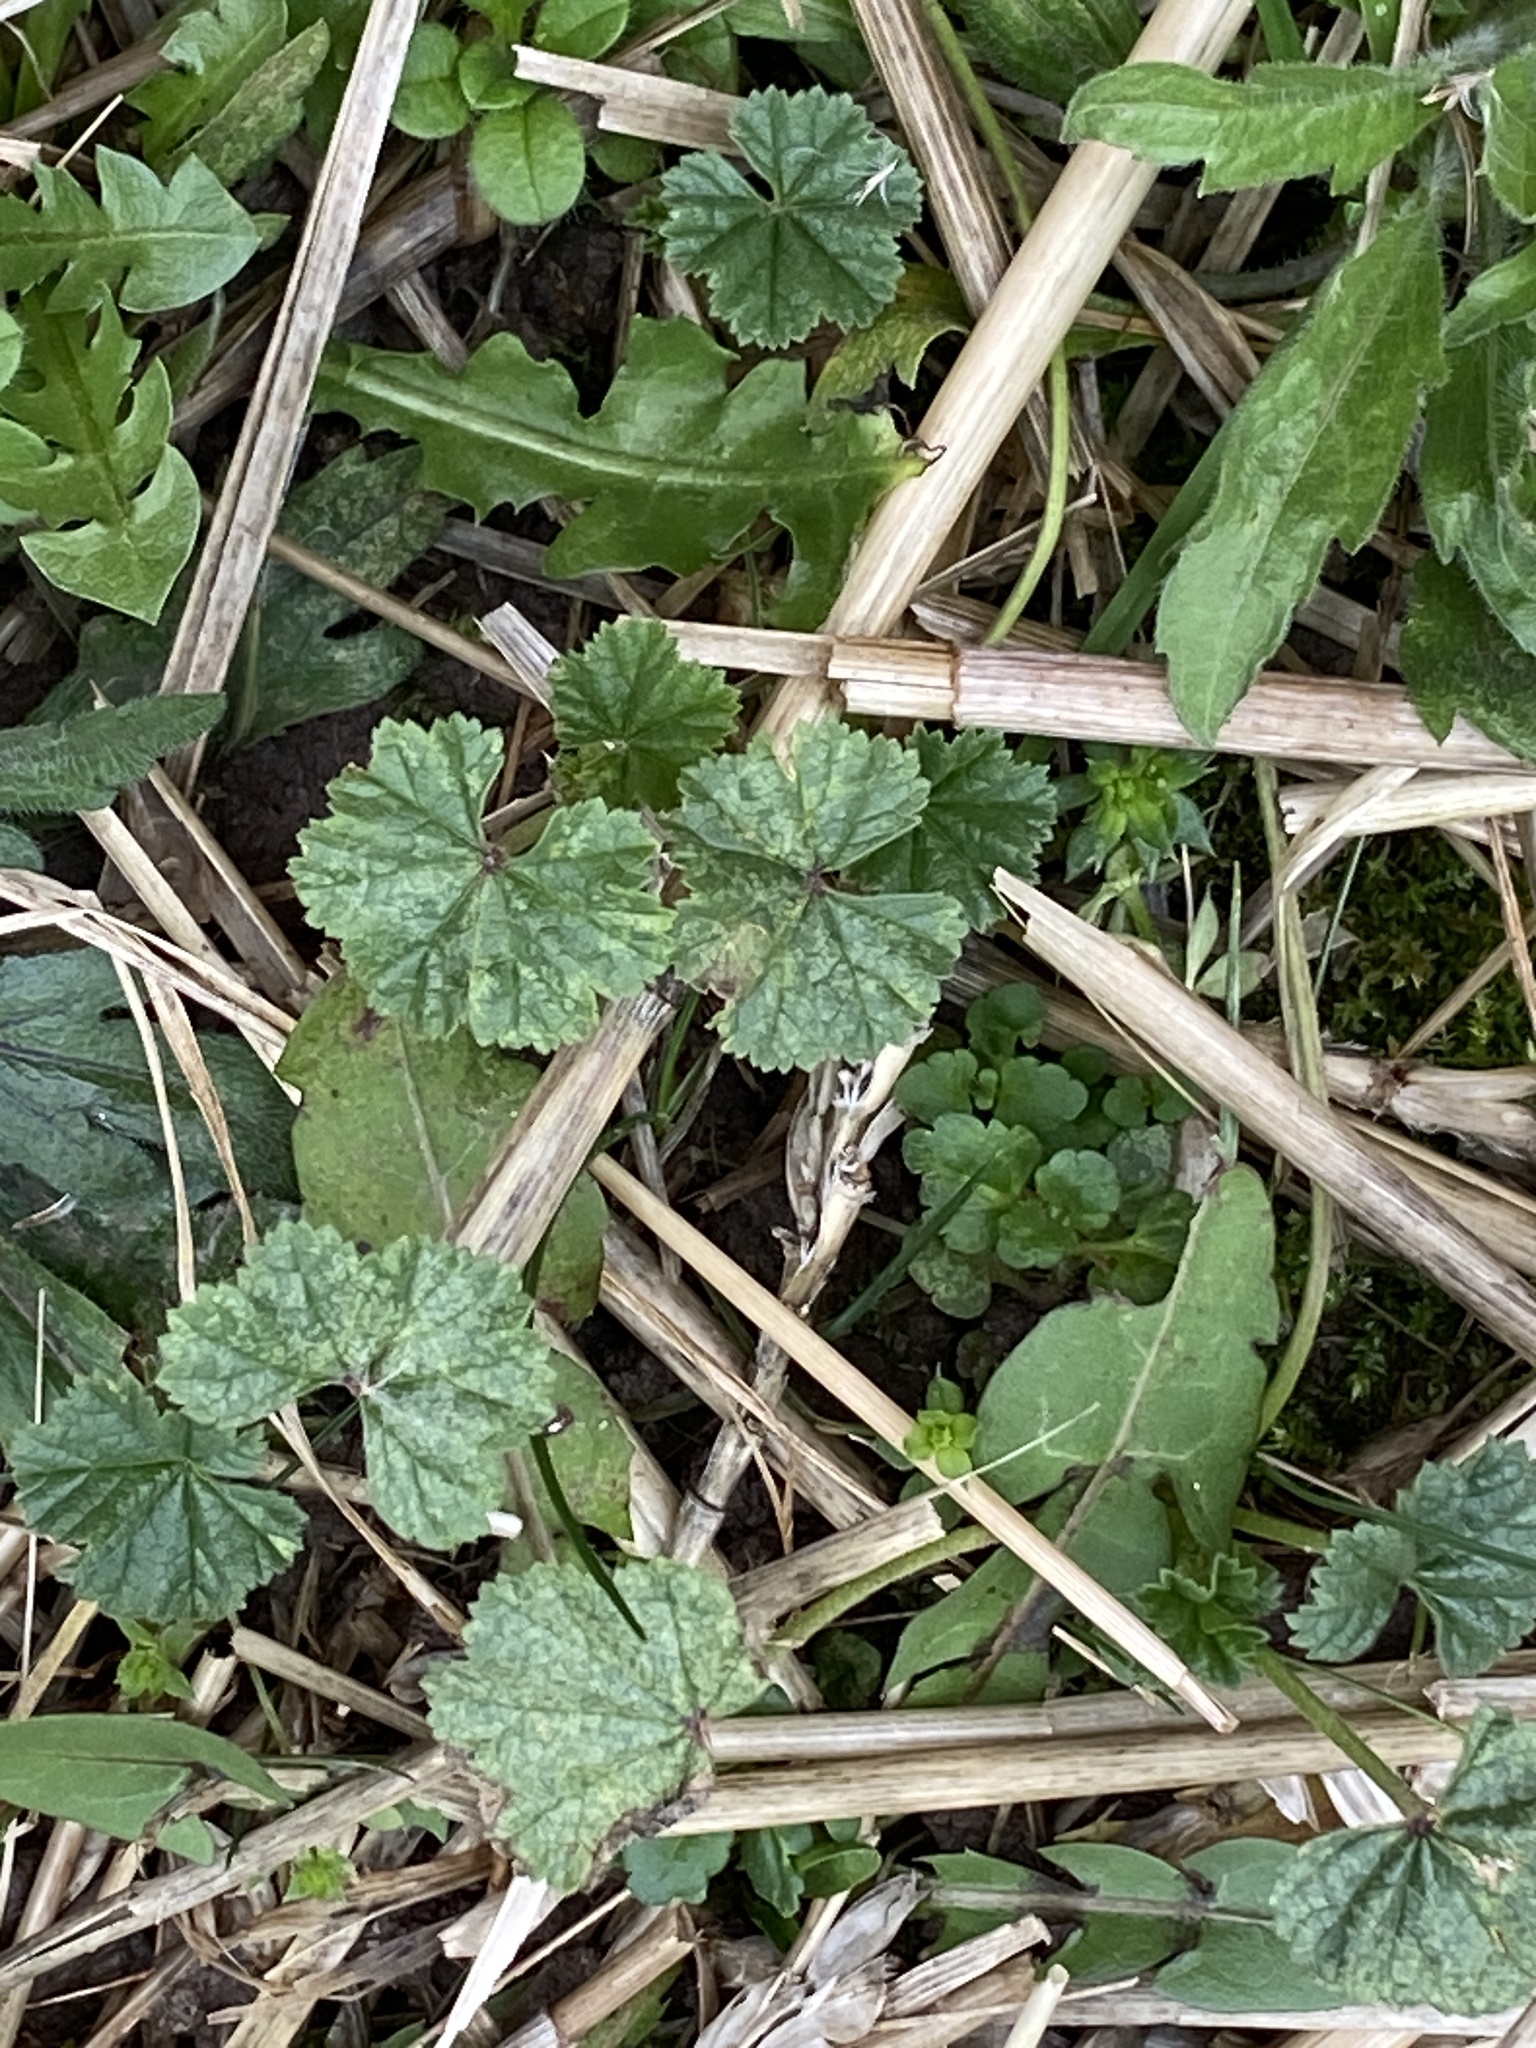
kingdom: Plantae
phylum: Tracheophyta
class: Magnoliopsida
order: Malvales
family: Malvaceae
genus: Malva
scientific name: Malva neglecta
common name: Common mallow
